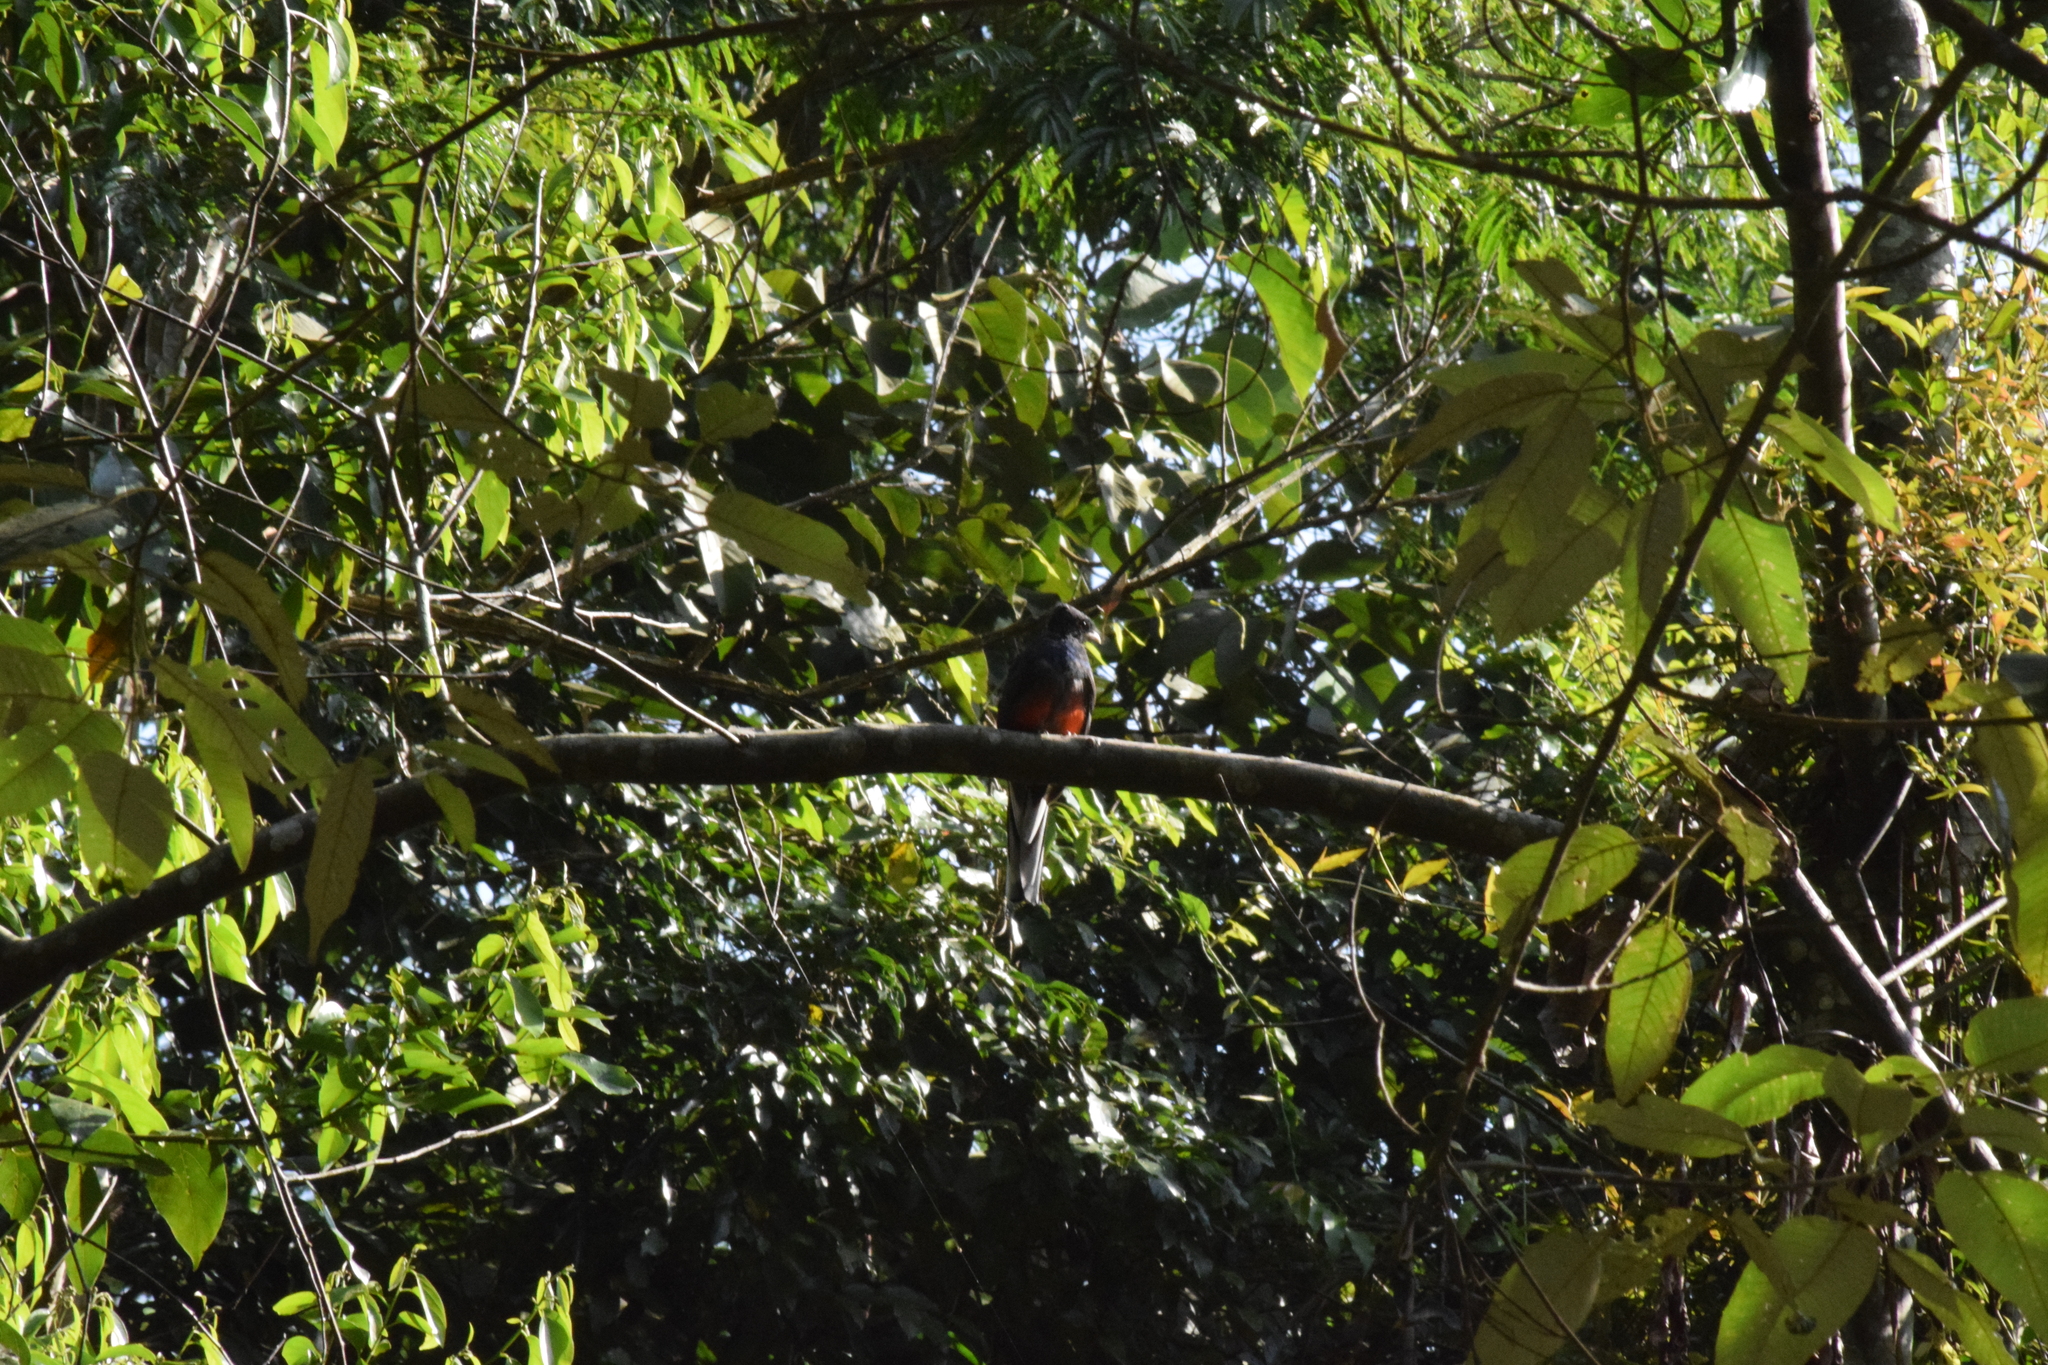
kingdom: Animalia
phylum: Chordata
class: Aves
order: Trogoniformes
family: Trogonidae
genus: Trogon
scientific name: Trogon surrucura
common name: Surucua trogon
